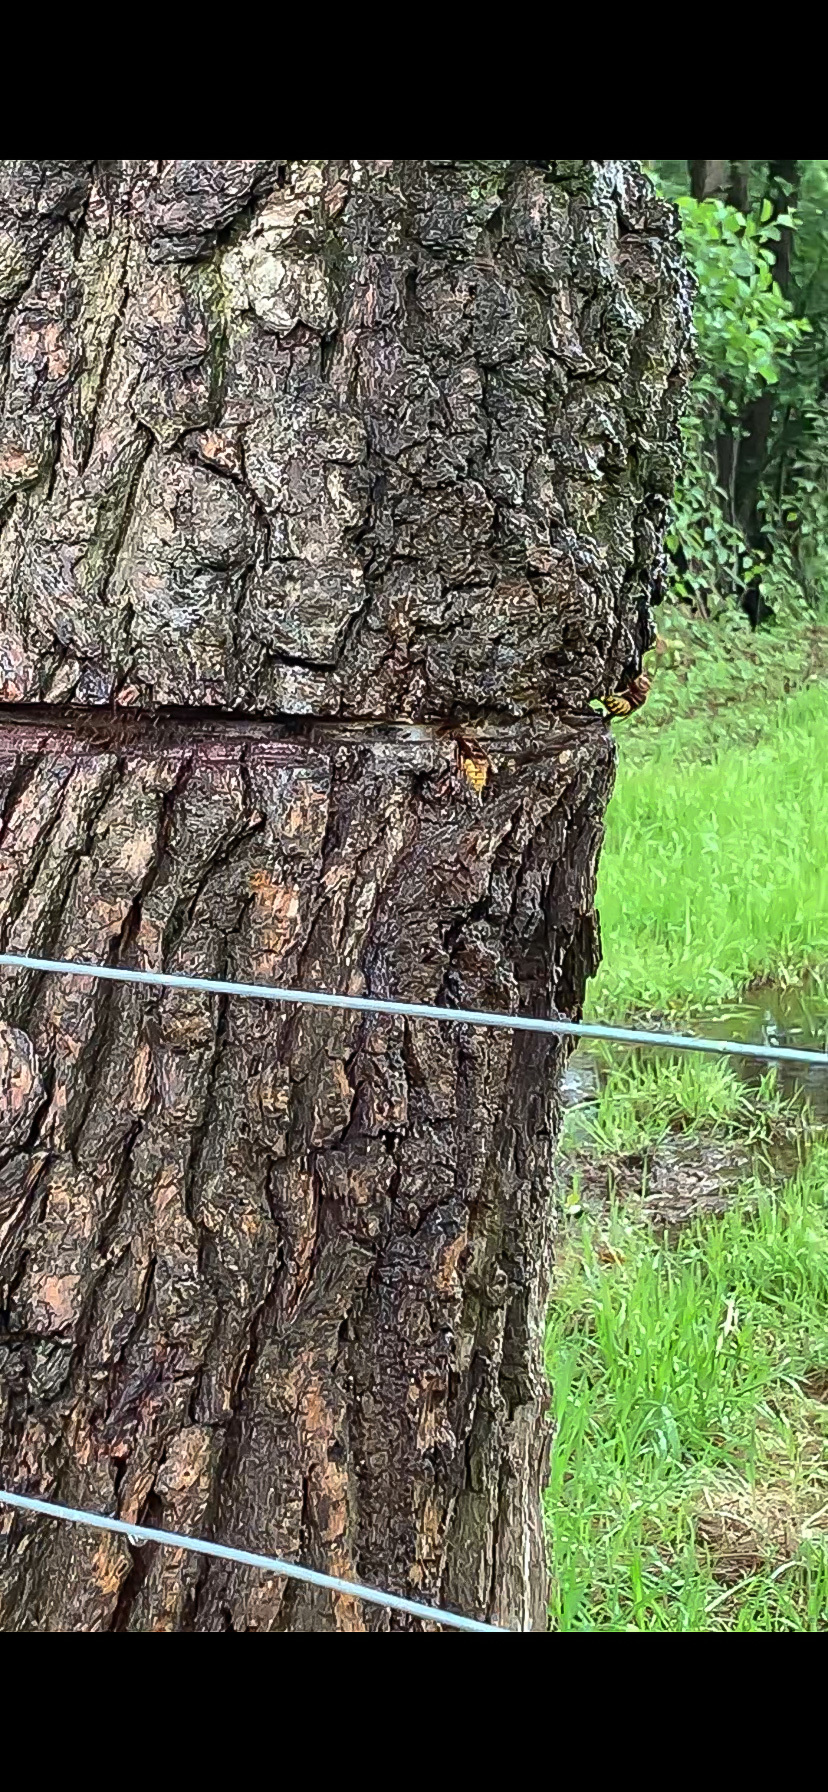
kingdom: Animalia
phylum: Arthropoda
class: Insecta
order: Hymenoptera
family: Vespidae
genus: Vespa
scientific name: Vespa crabro
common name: Hornet
